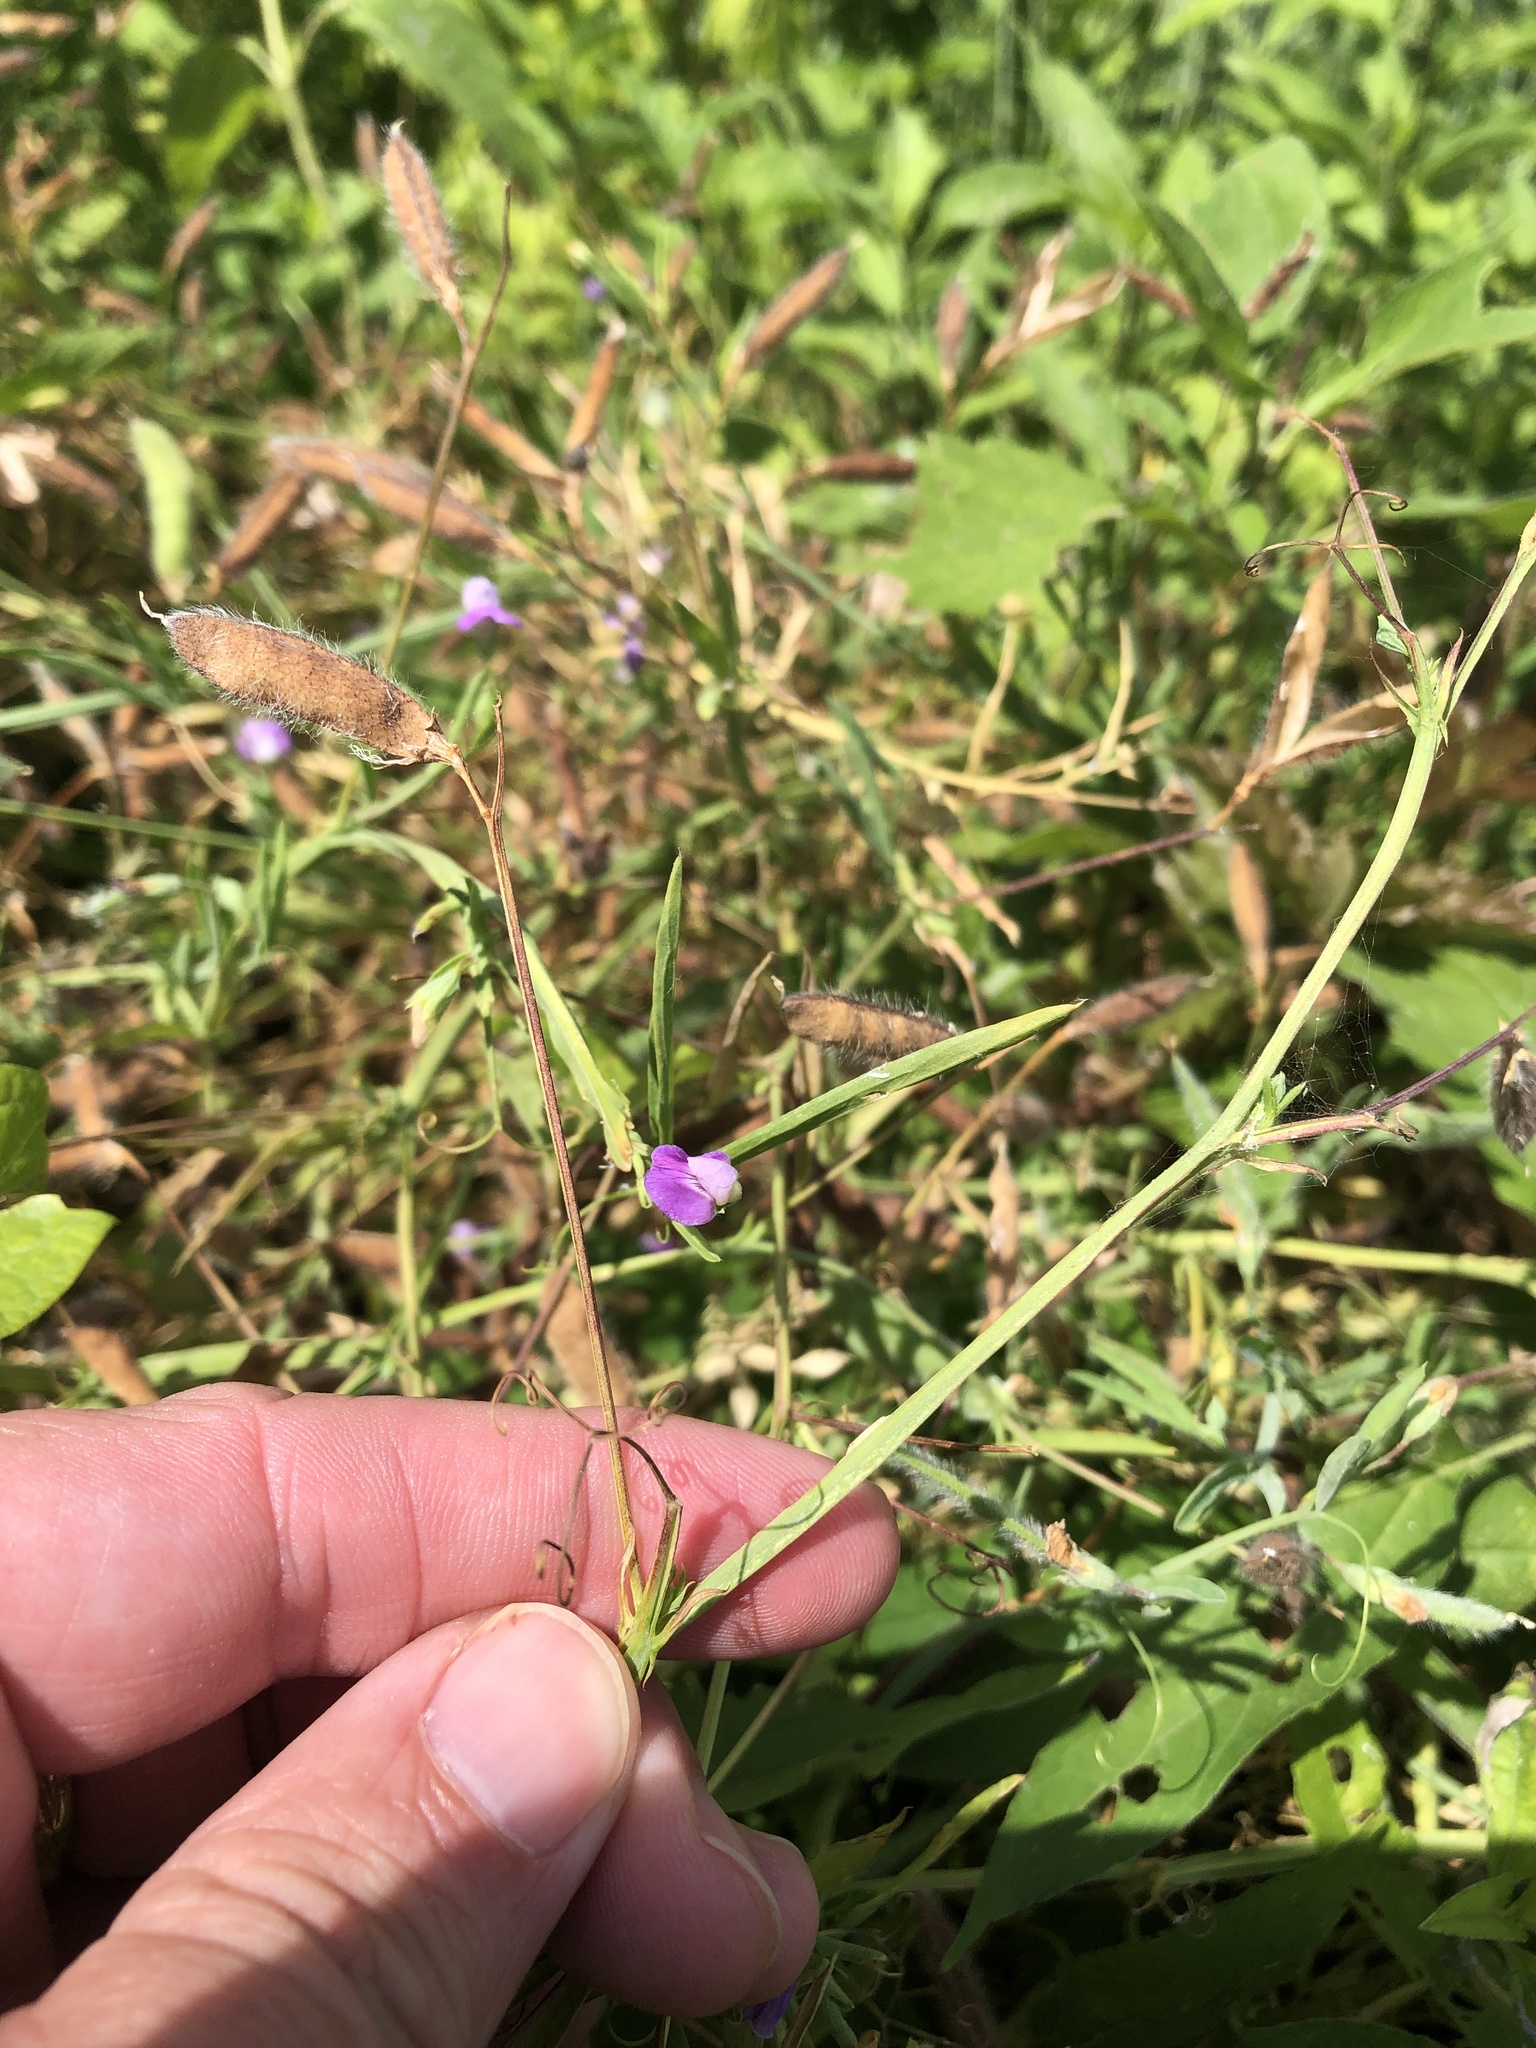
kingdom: Plantae
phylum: Tracheophyta
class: Magnoliopsida
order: Fabales
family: Fabaceae
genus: Lathyrus
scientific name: Lathyrus hirsutus
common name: Hairy vetchling
